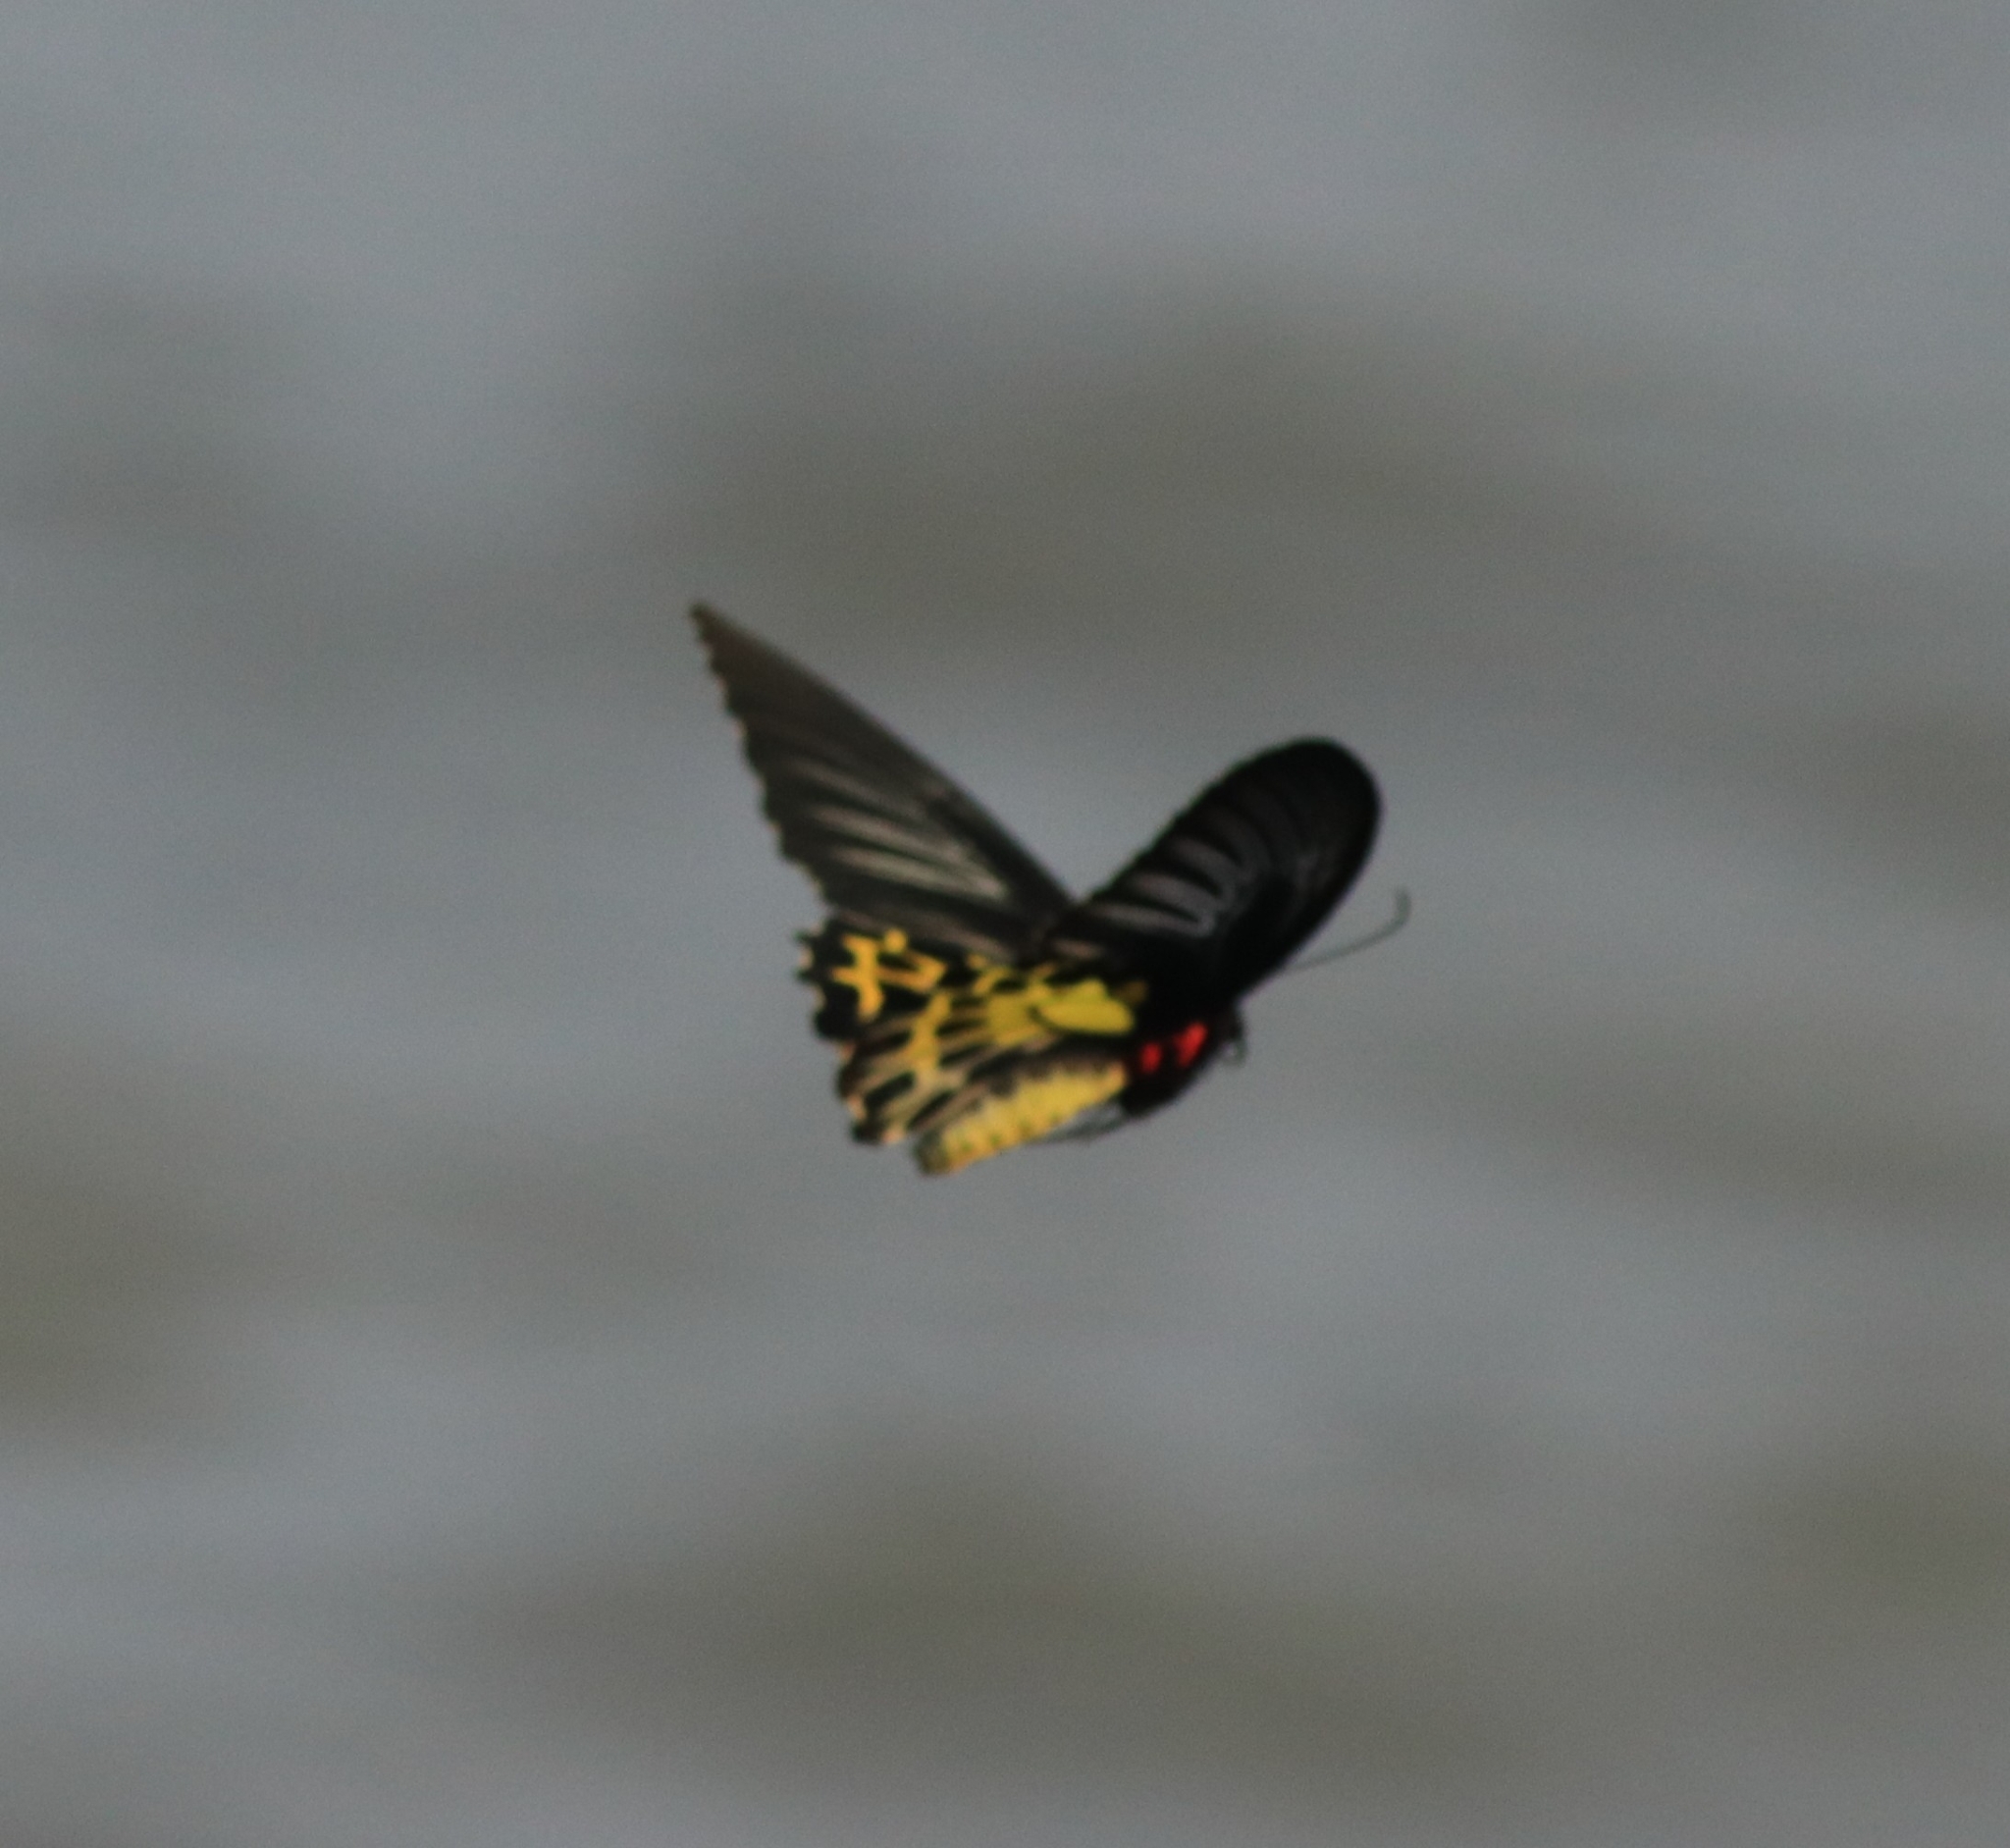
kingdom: Animalia
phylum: Arthropoda
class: Insecta
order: Lepidoptera
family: Papilionidae
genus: Troides
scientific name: Troides minos
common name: Malabar birdwing
